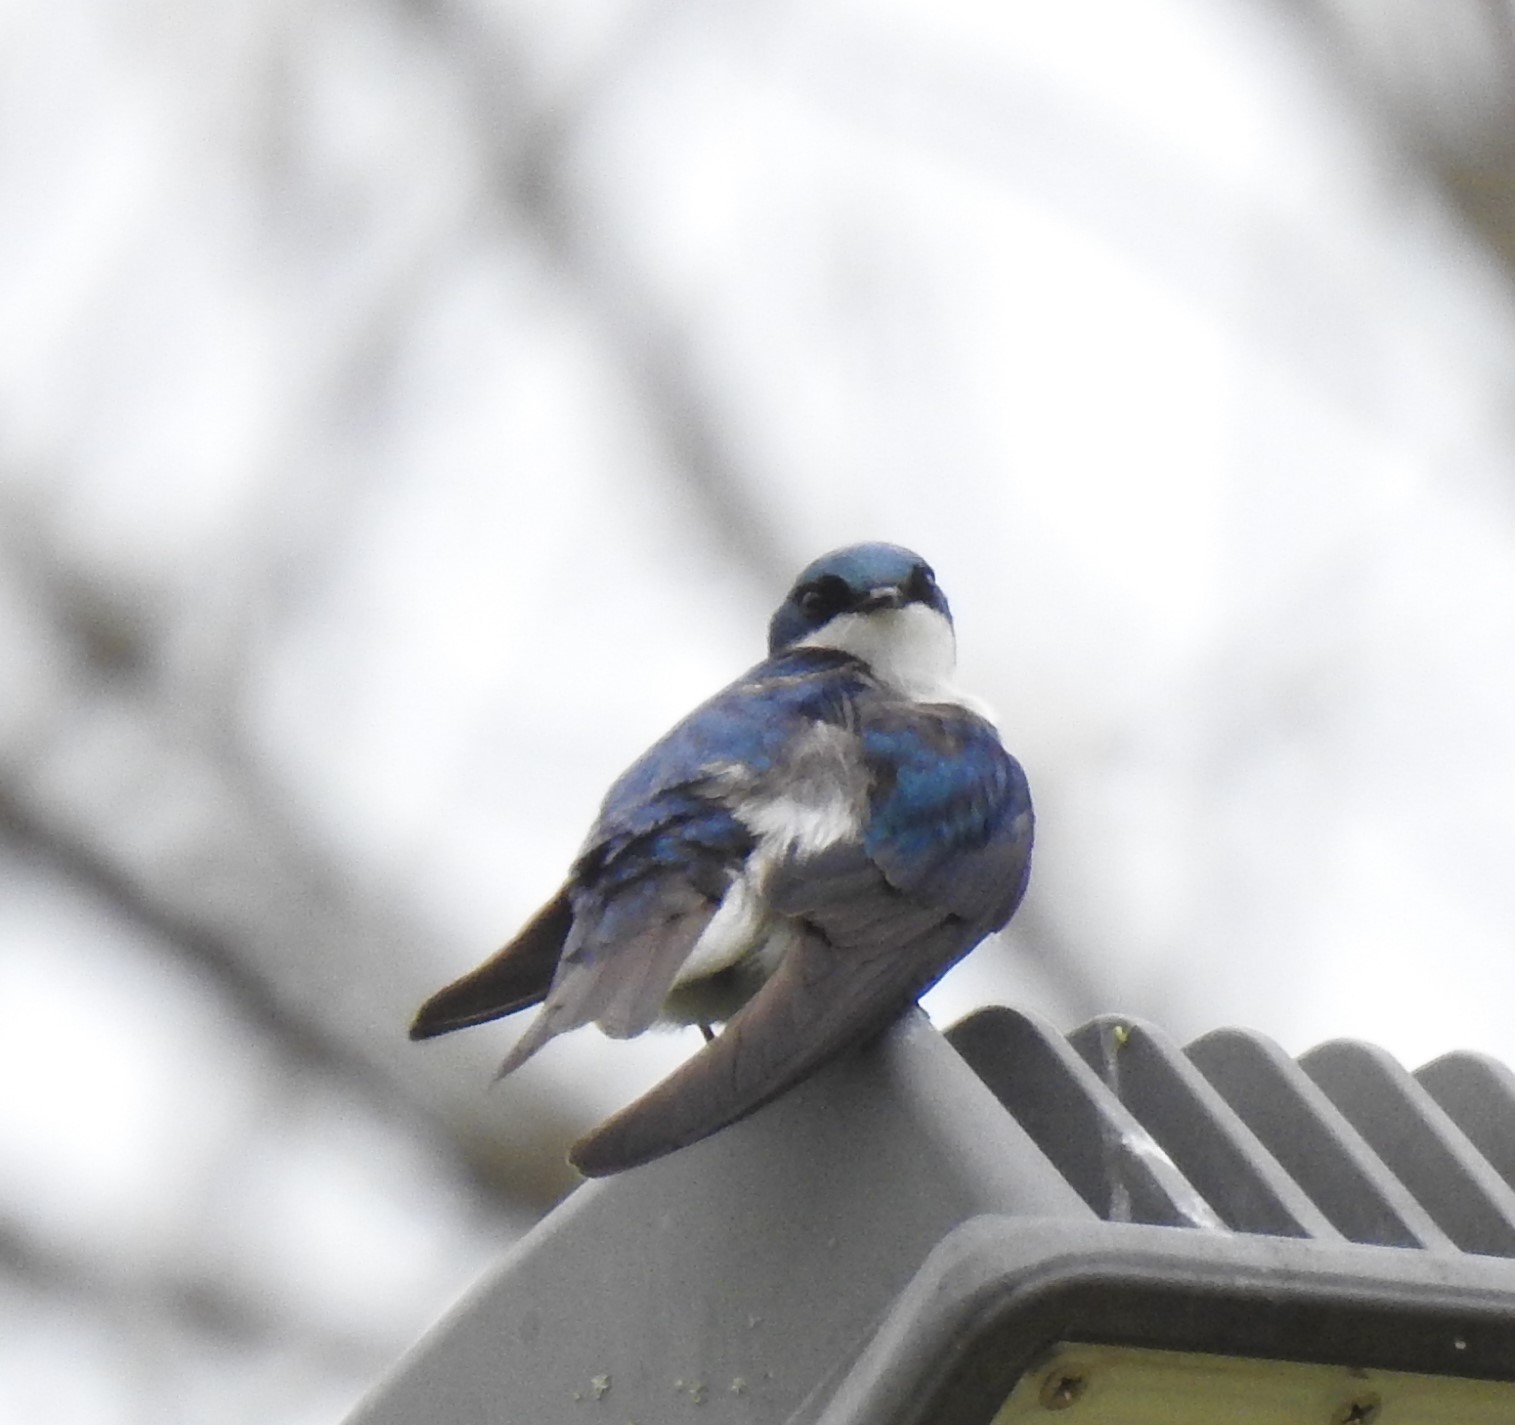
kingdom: Animalia
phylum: Chordata
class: Aves
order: Passeriformes
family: Hirundinidae
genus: Tachycineta
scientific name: Tachycineta bicolor
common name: Tree swallow
